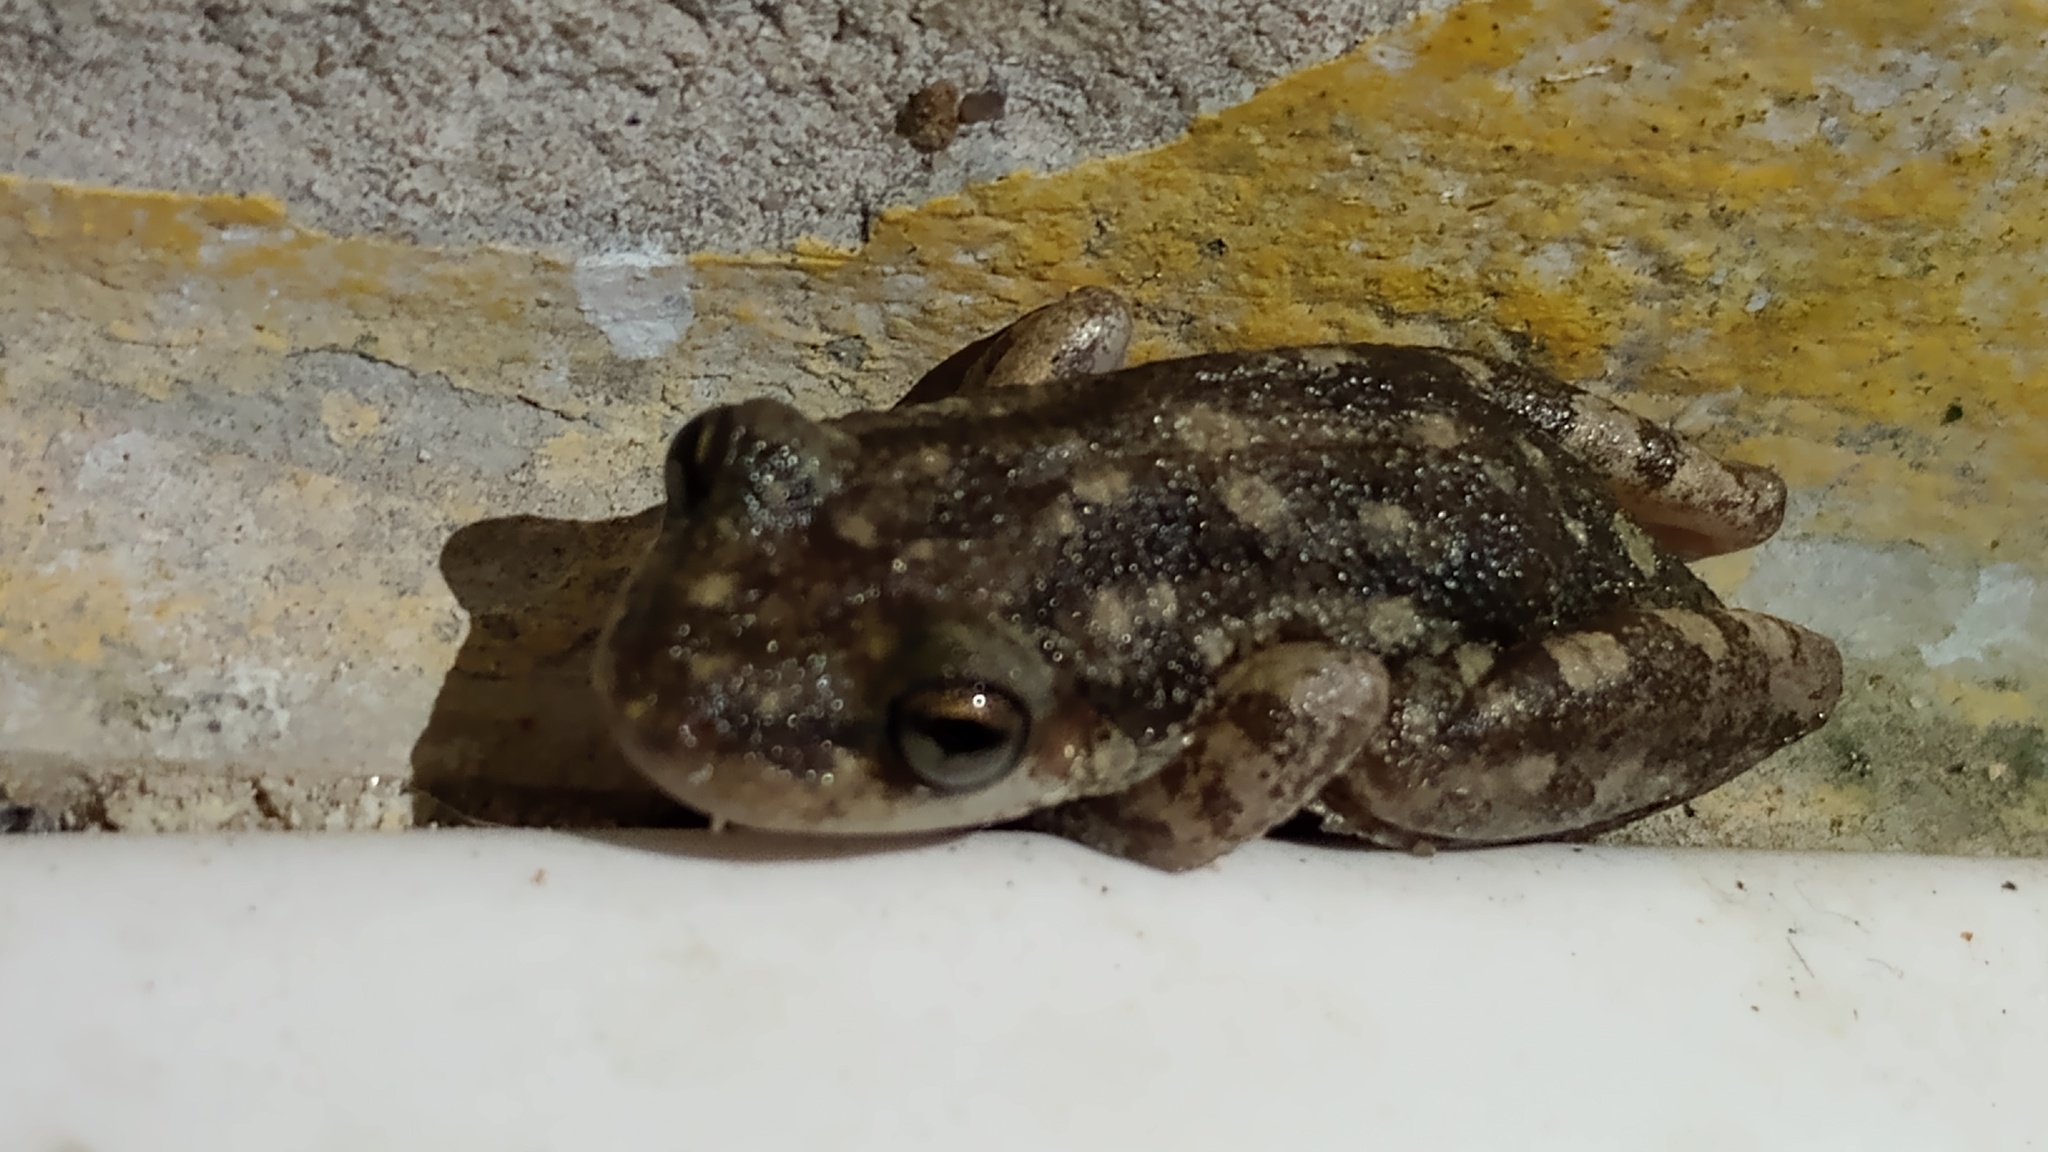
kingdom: Animalia
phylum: Chordata
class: Amphibia
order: Anura
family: Hylidae
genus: Scinax
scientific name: Scinax nasicus
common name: Lesser snouted treefrog
